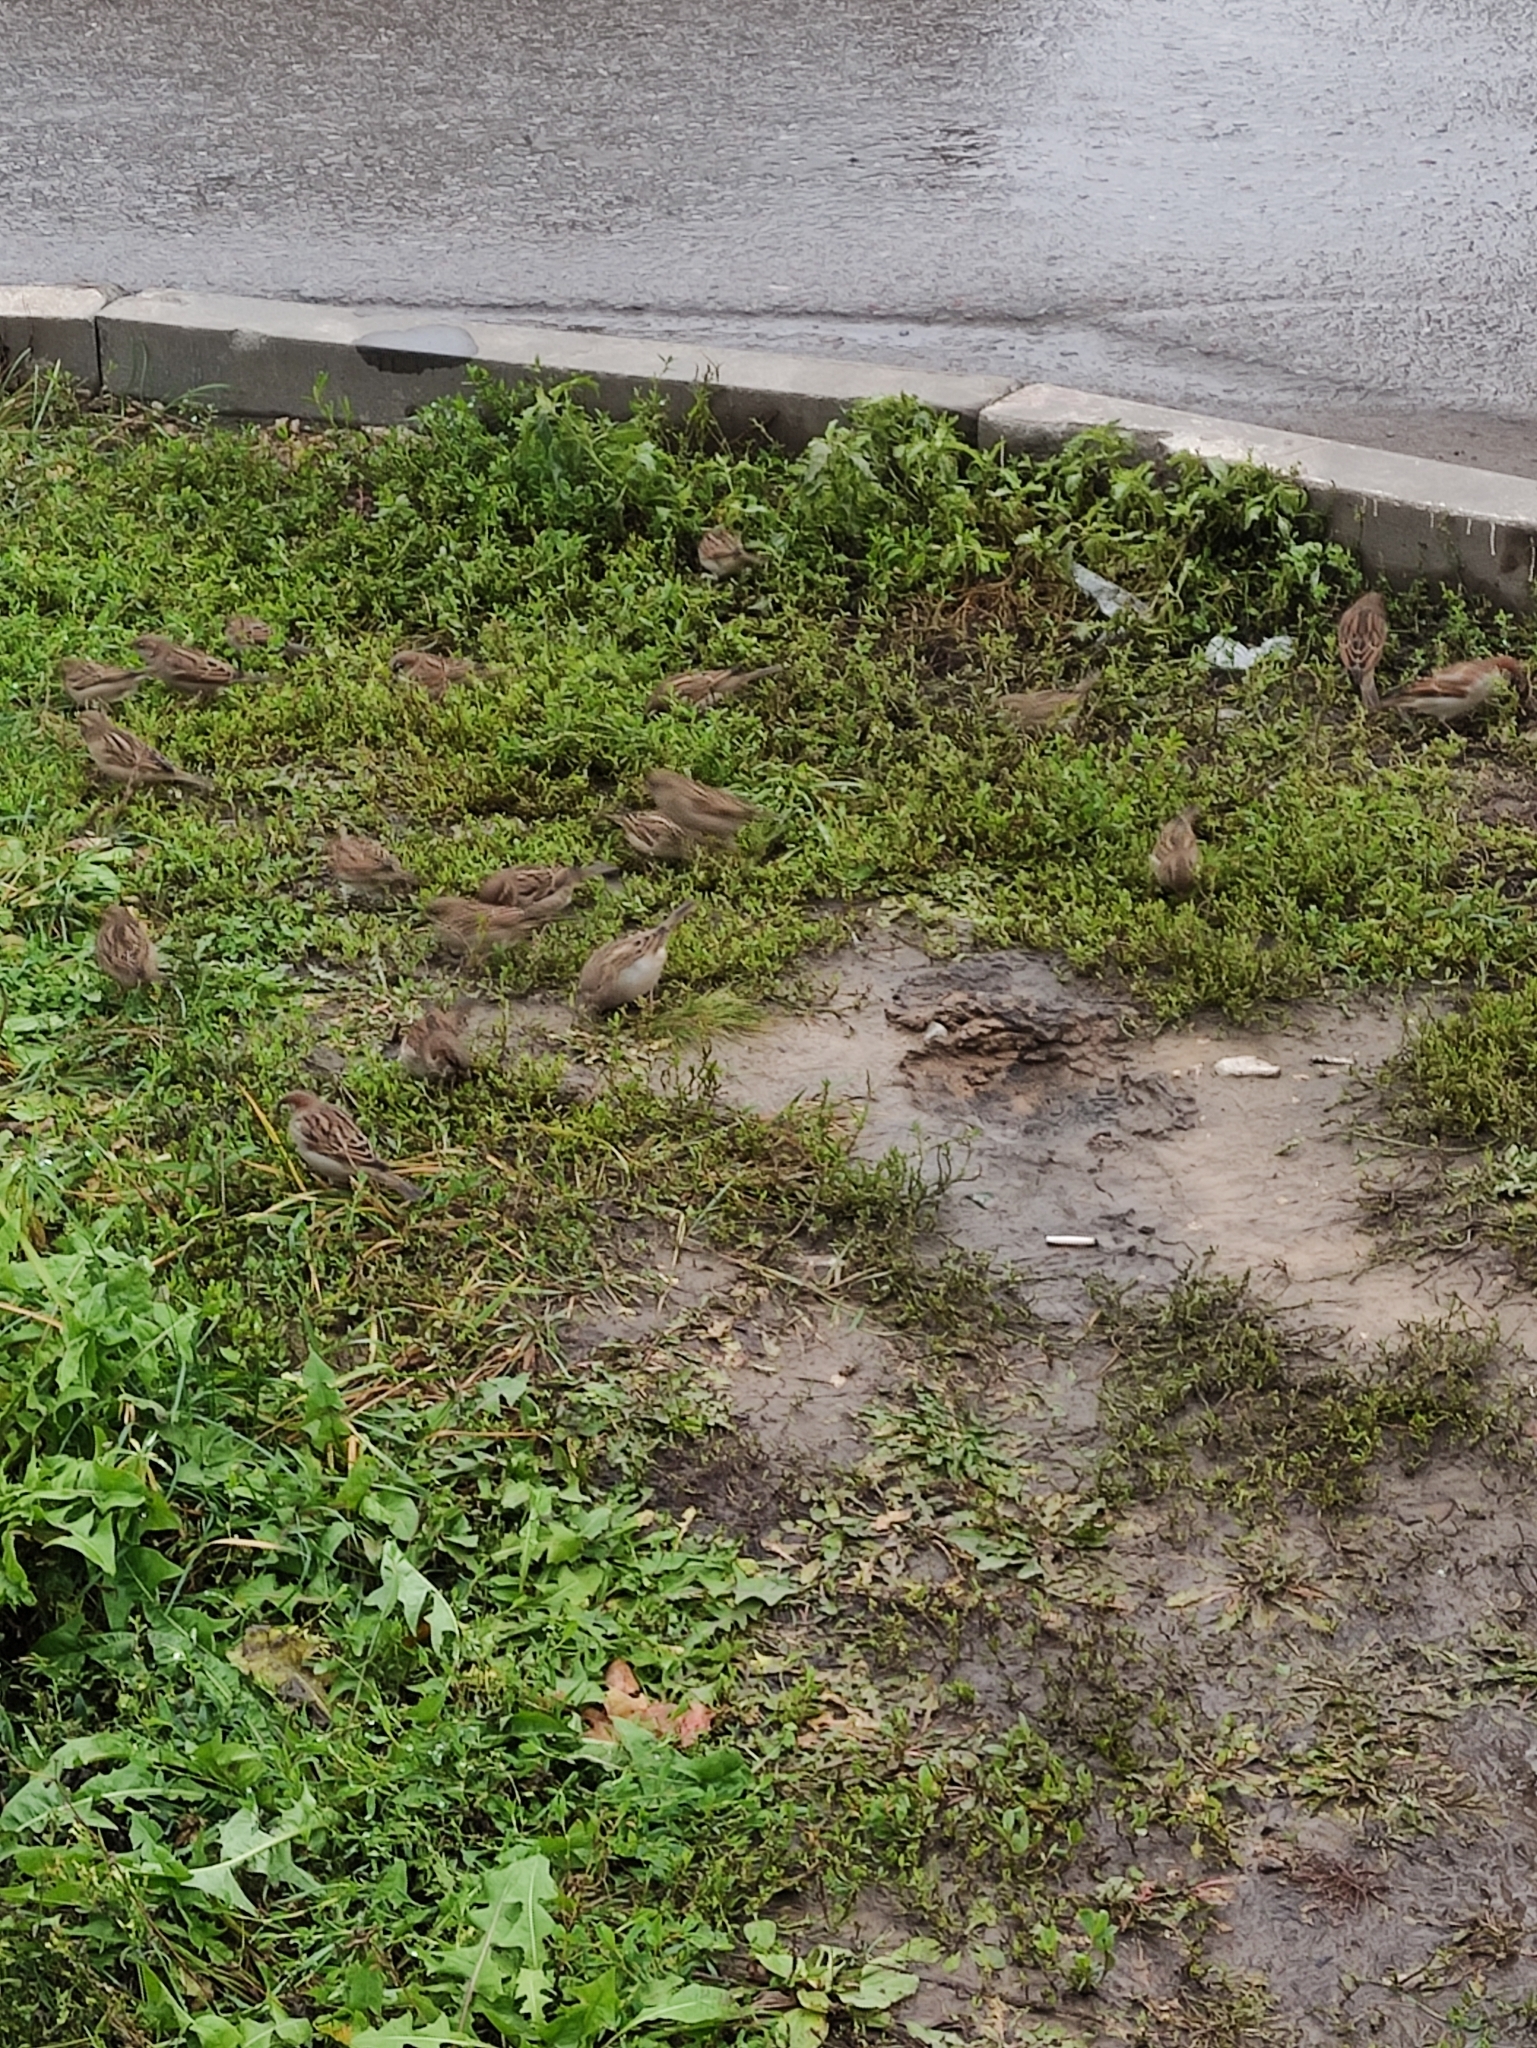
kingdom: Animalia
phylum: Chordata
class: Aves
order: Passeriformes
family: Passeridae
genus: Passer
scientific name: Passer domesticus
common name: House sparrow
